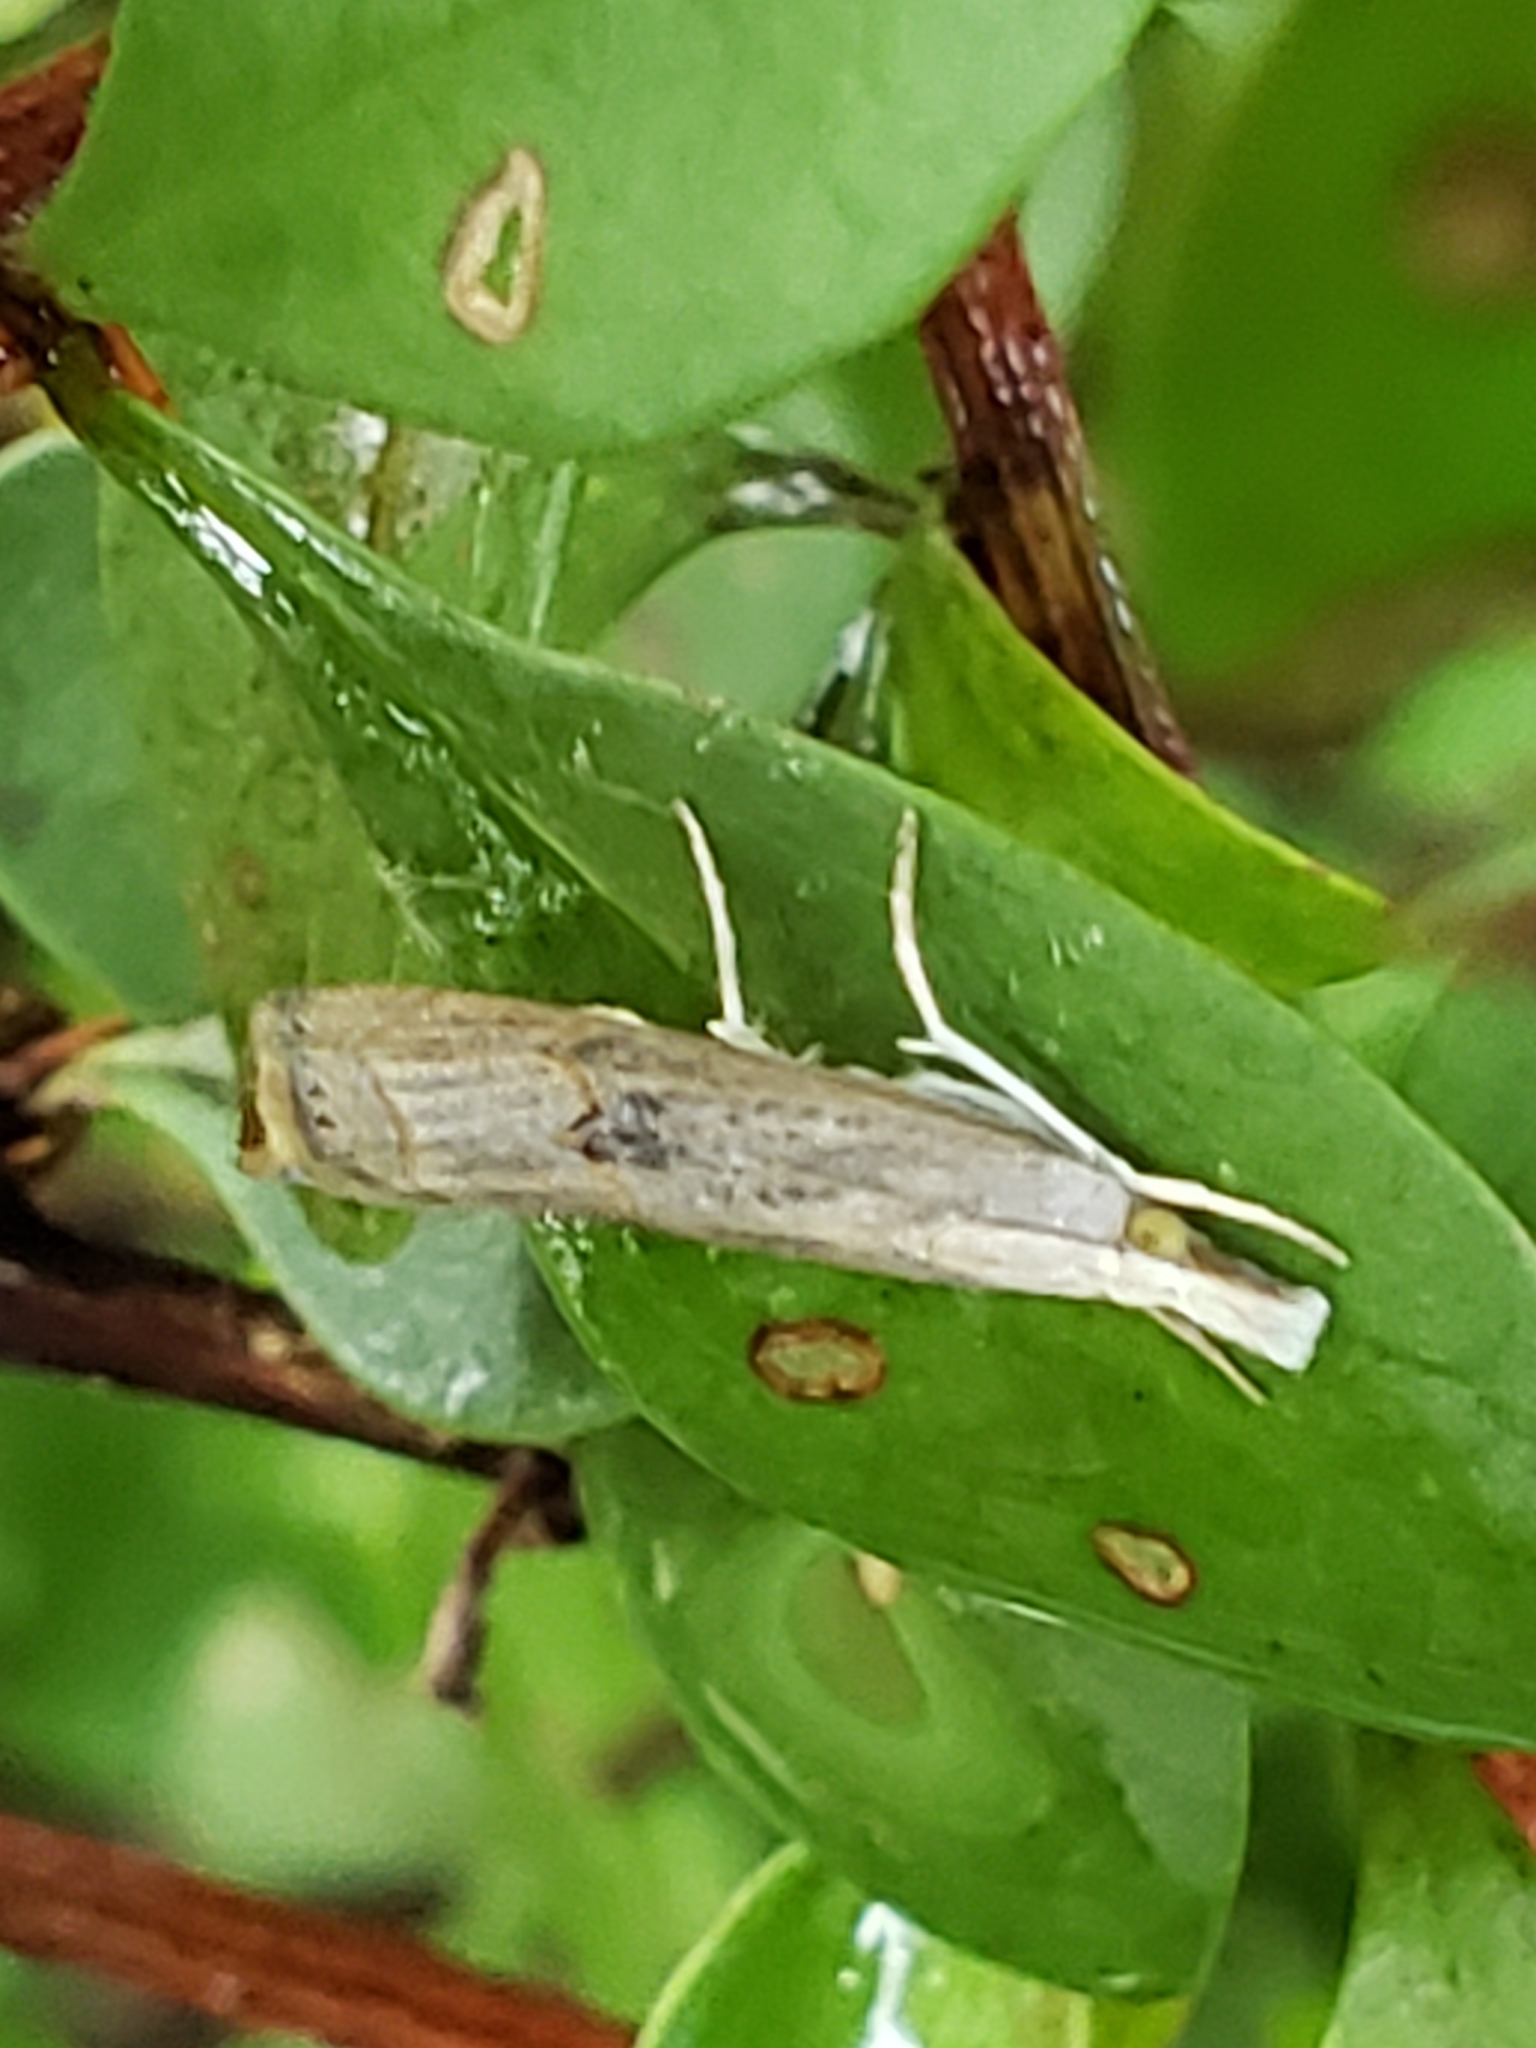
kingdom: Animalia
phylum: Arthropoda
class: Insecta
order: Lepidoptera
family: Crambidae
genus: Parapediasia
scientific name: Parapediasia teterellus
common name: Bluegrass webworm moth
